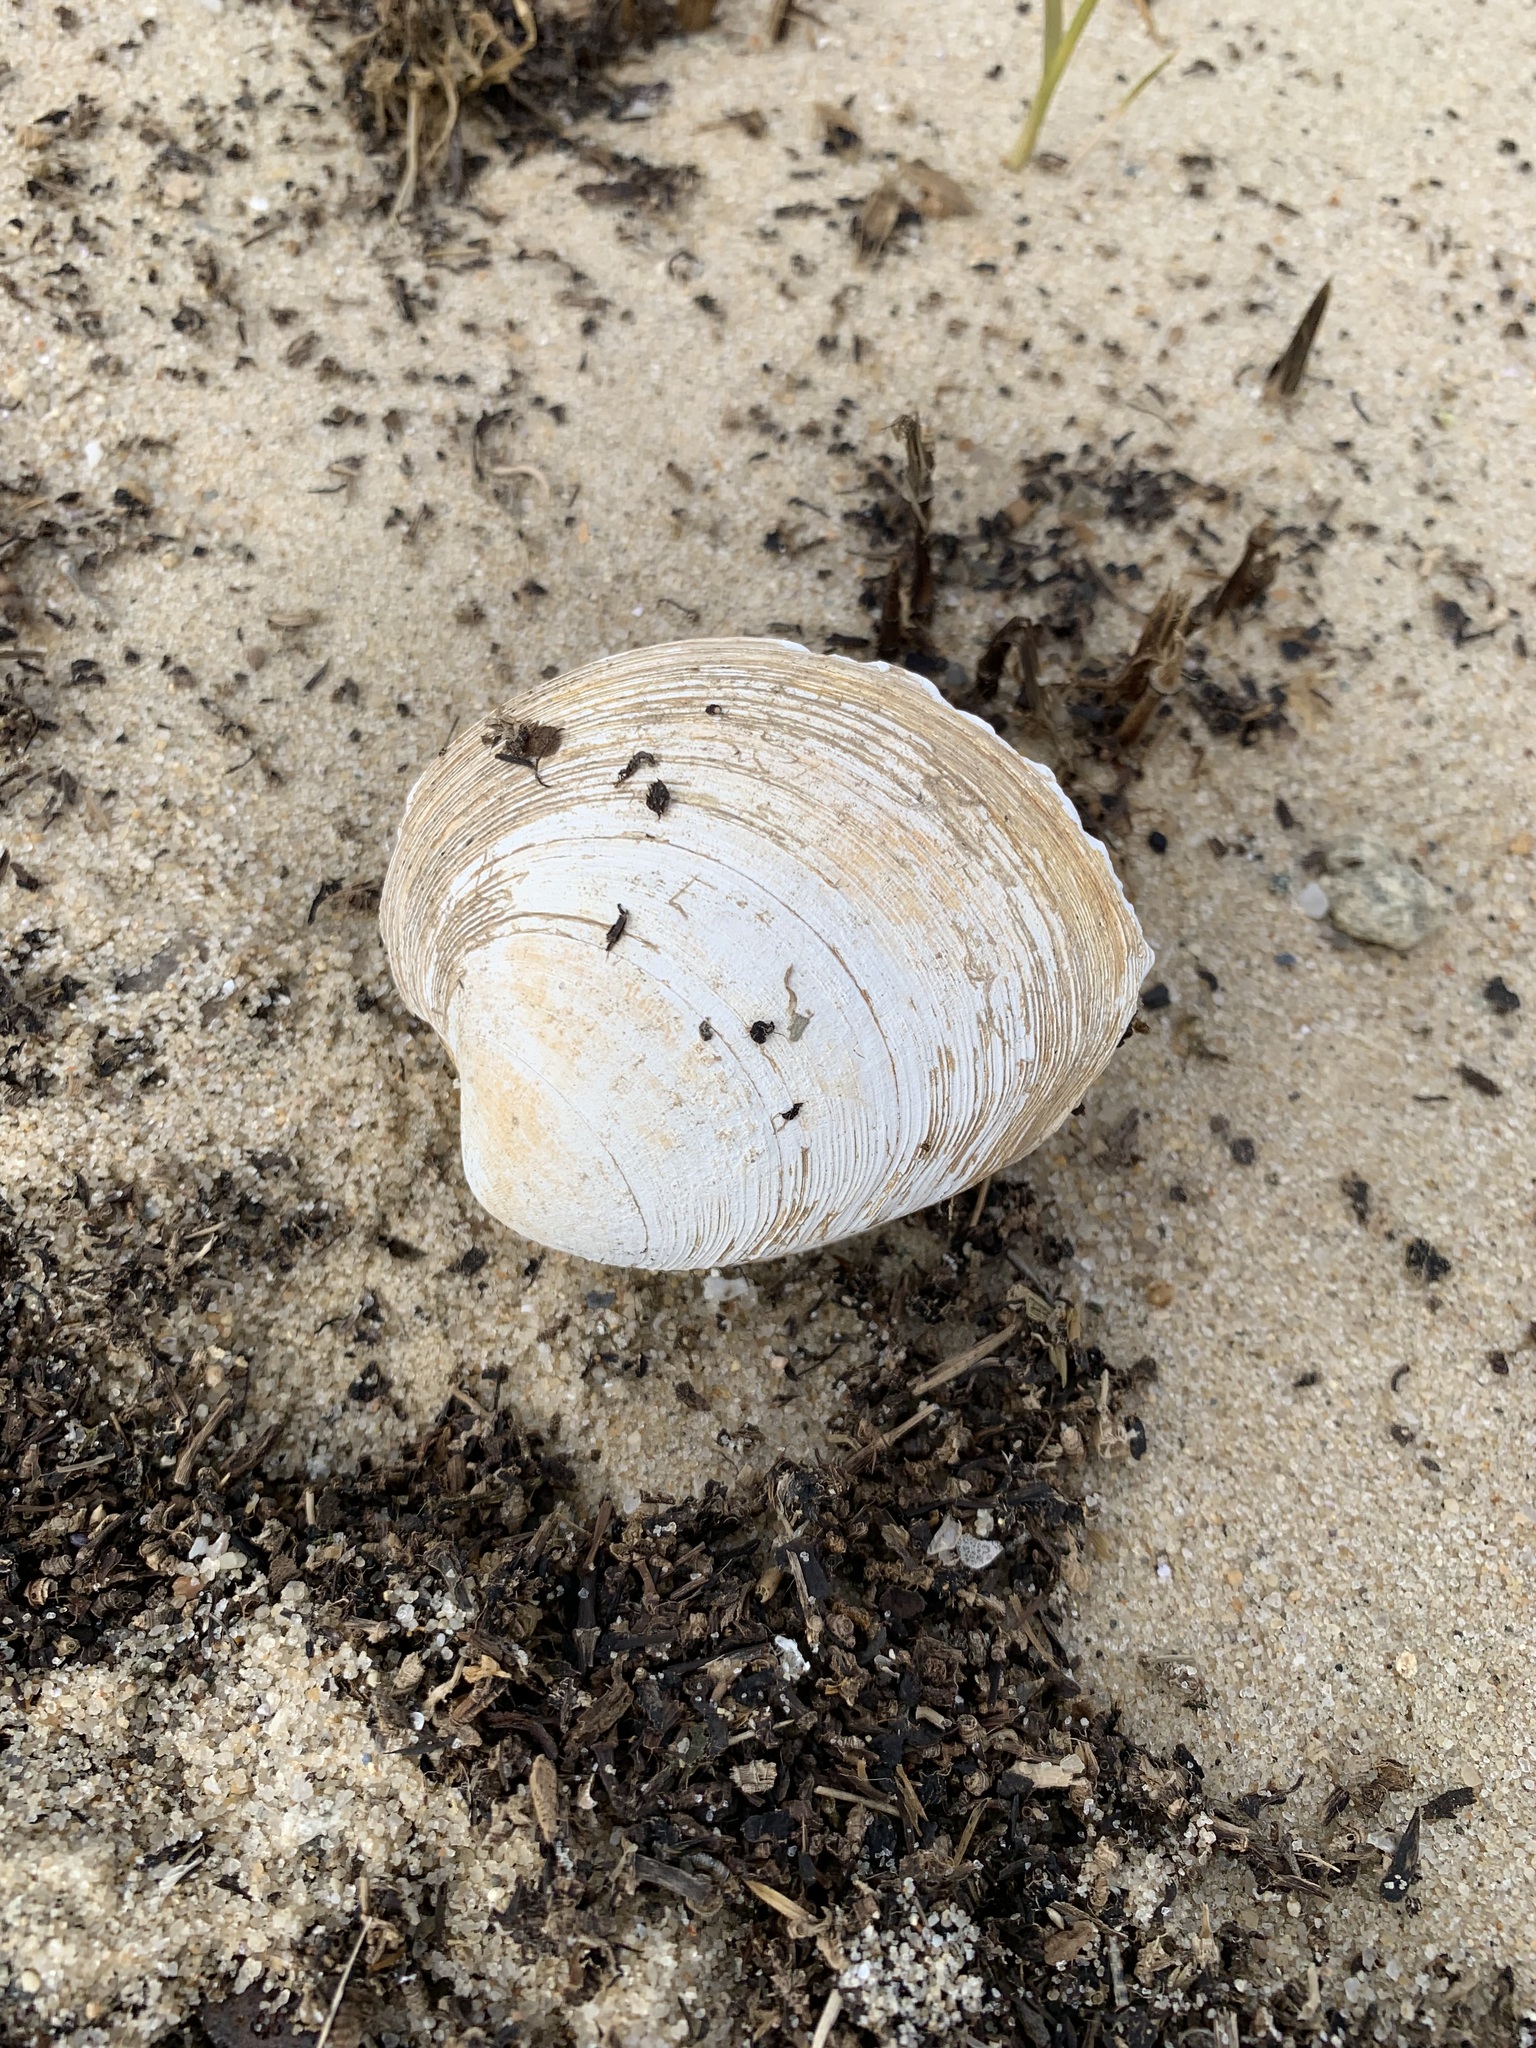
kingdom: Animalia
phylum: Mollusca
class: Bivalvia
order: Venerida
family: Veneridae
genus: Mercenaria
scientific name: Mercenaria mercenaria
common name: American hard-shelled clam
